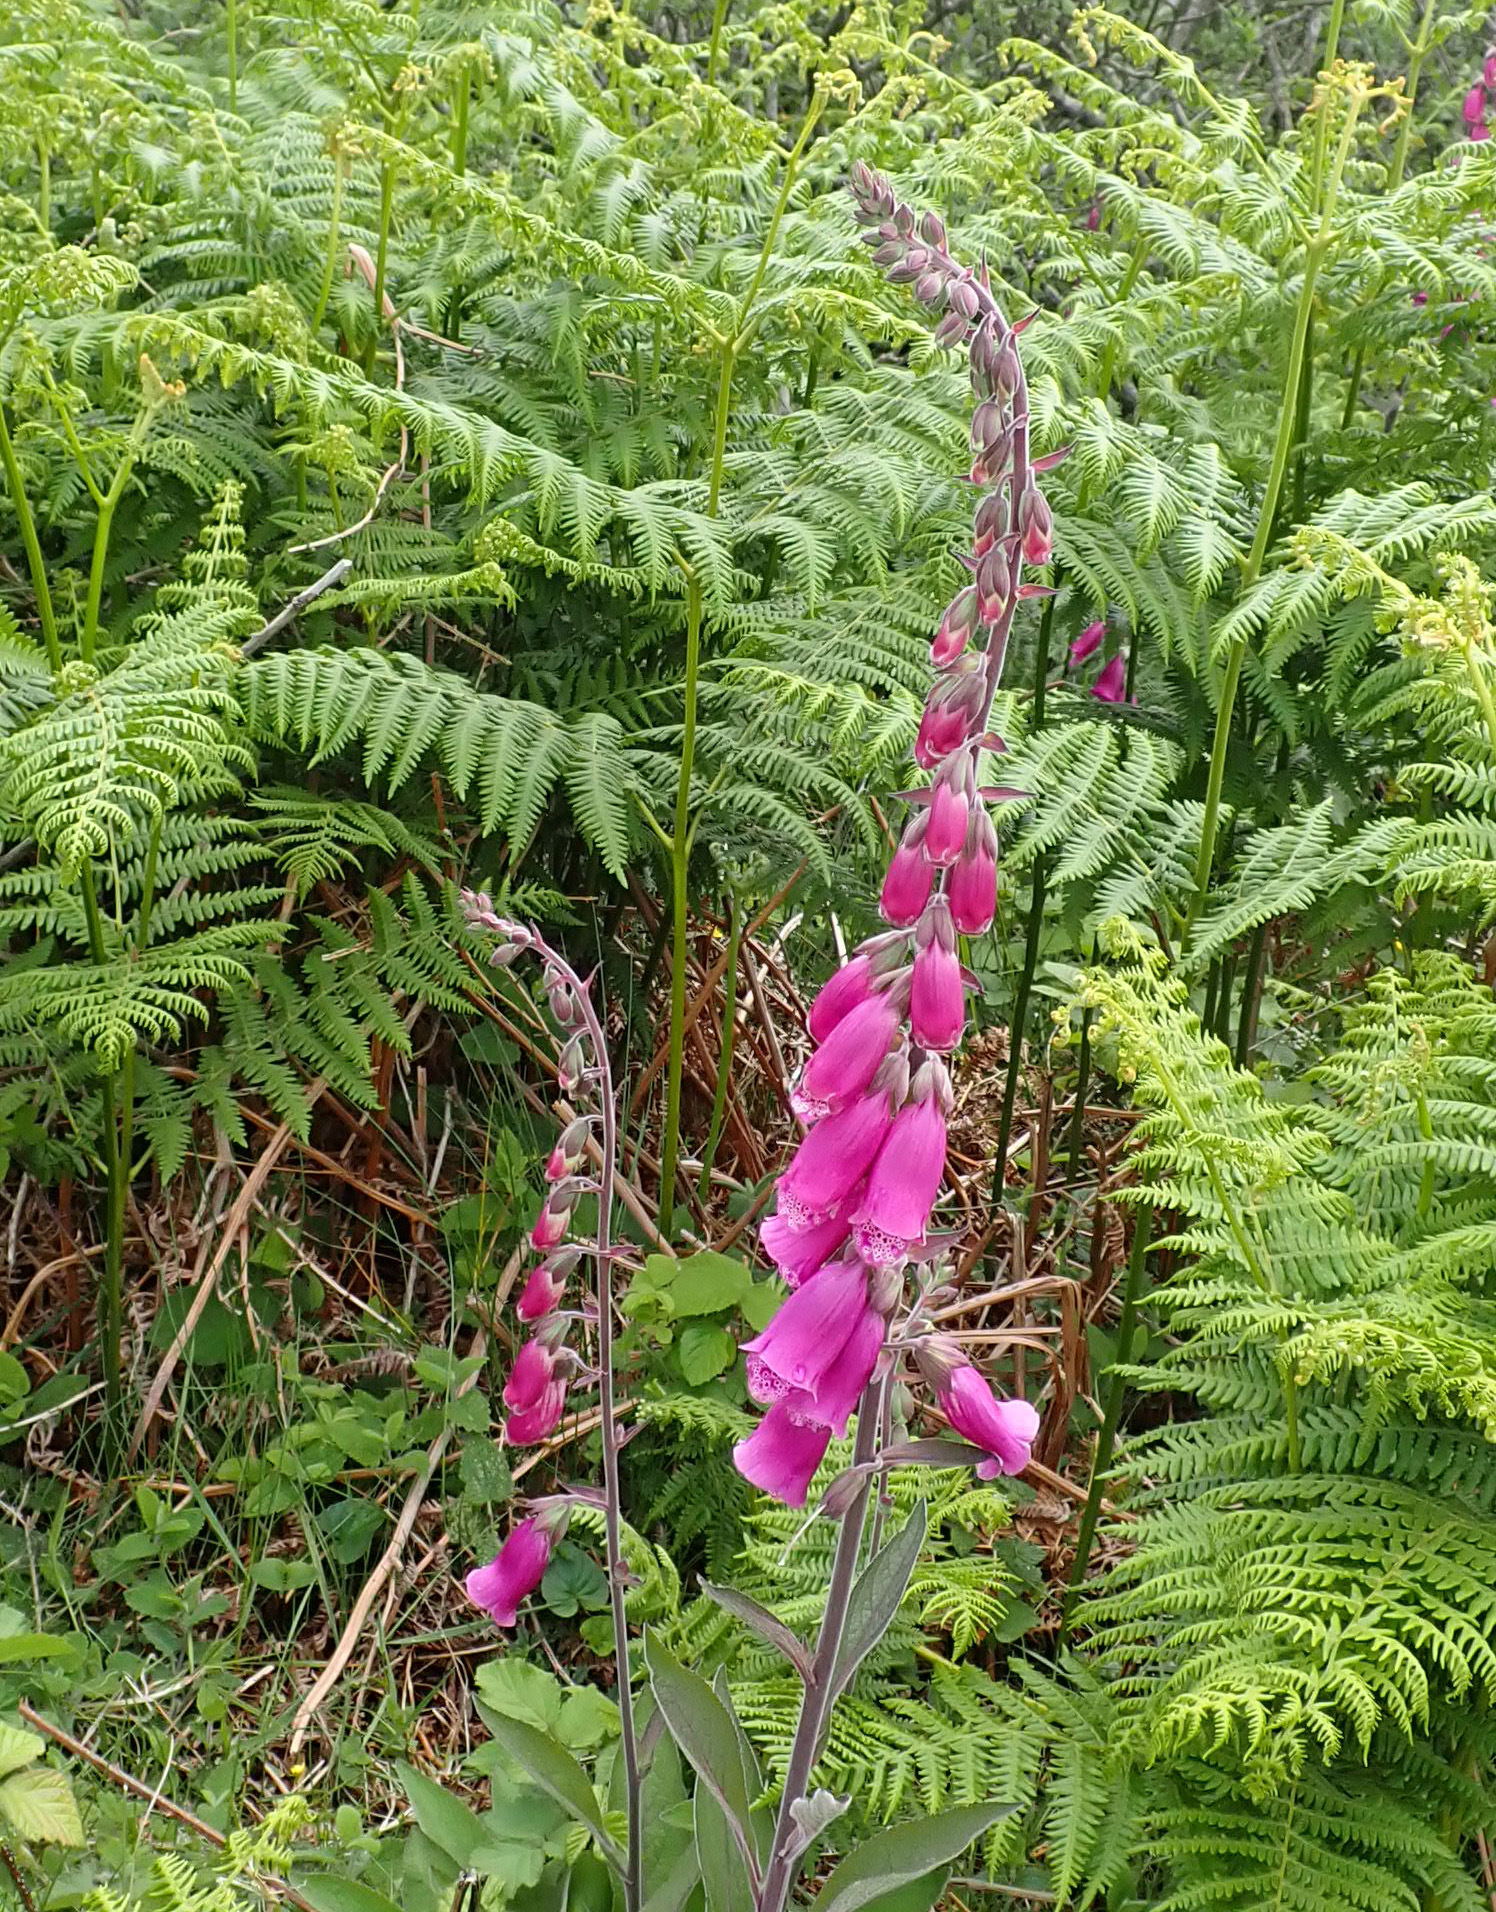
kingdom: Plantae
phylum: Tracheophyta
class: Magnoliopsida
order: Lamiales
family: Plantaginaceae
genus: Digitalis
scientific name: Digitalis purpurea
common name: Foxglove
